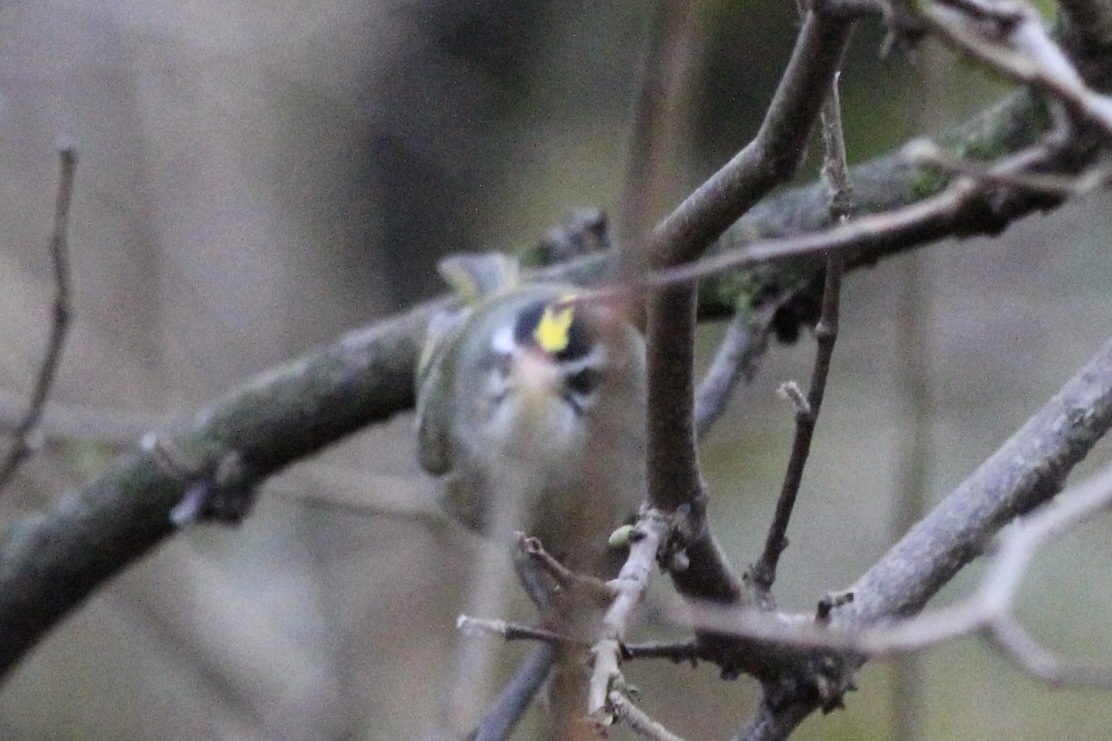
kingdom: Animalia
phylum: Chordata
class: Aves
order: Passeriformes
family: Regulidae
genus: Regulus
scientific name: Regulus satrapa
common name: Golden-crowned kinglet
